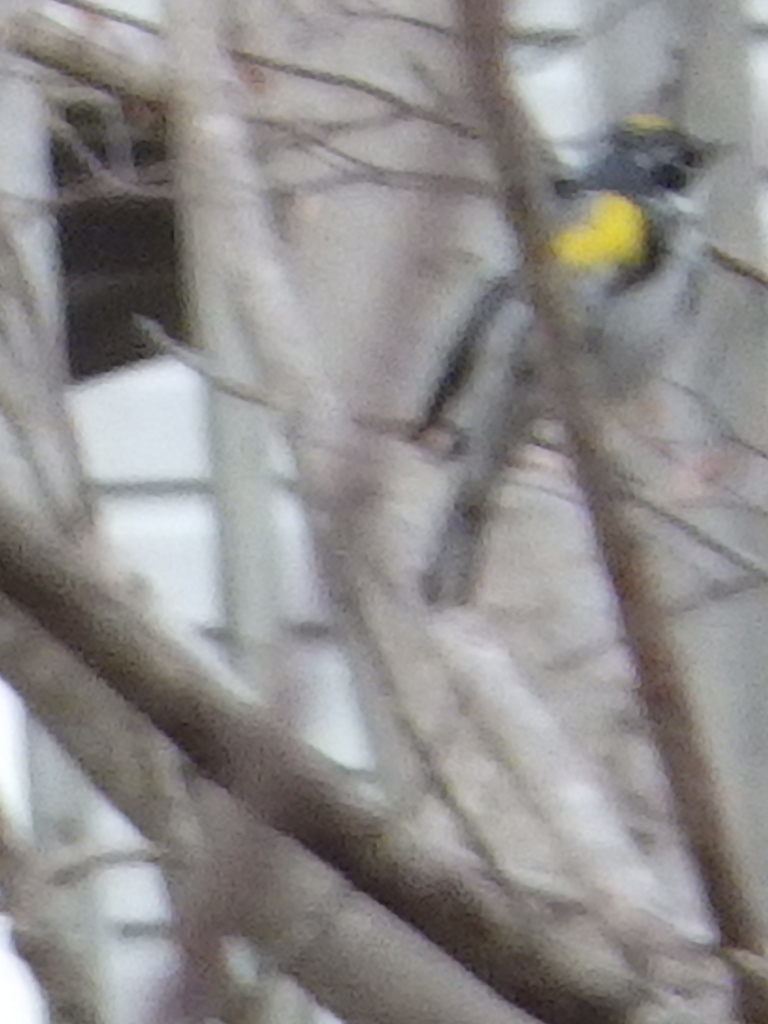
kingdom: Animalia
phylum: Chordata
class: Aves
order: Passeriformes
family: Parulidae
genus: Setophaga
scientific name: Setophaga coronata
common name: Myrtle warbler
